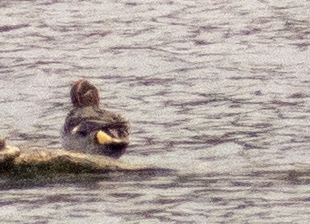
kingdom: Animalia
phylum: Chordata
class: Aves
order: Anseriformes
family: Anatidae
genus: Anas
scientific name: Anas crecca
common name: Eurasian teal
